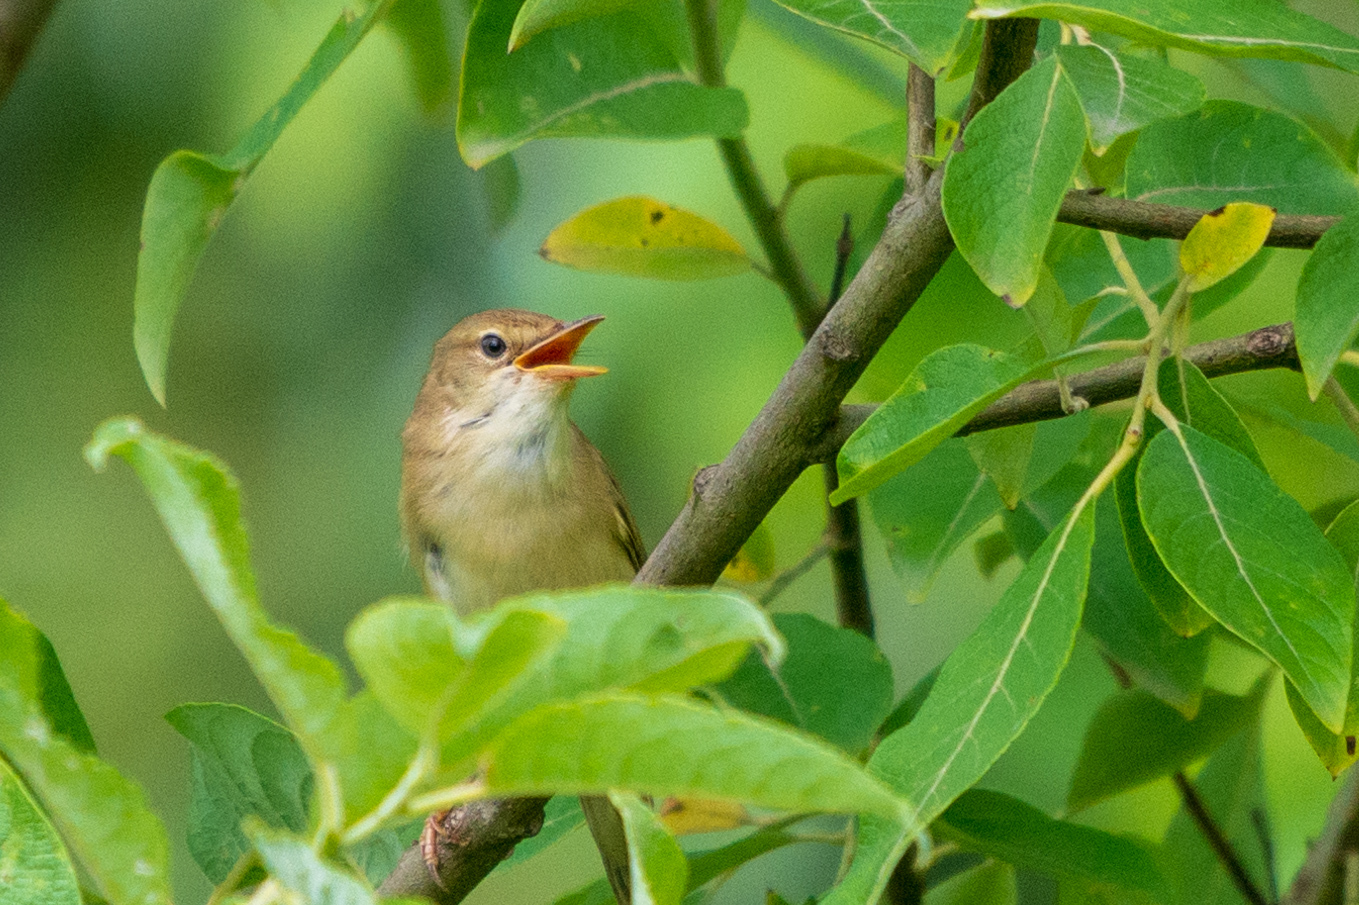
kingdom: Animalia
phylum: Chordata
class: Aves
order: Passeriformes
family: Acrocephalidae
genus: Acrocephalus
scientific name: Acrocephalus palustris
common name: Marsh warbler
